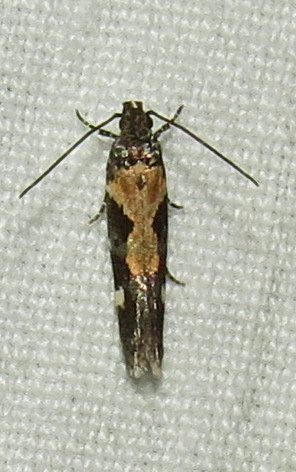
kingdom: Animalia
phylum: Arthropoda
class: Insecta
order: Lepidoptera
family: Gelechiidae
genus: Stegasta
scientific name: Stegasta bosqueella
